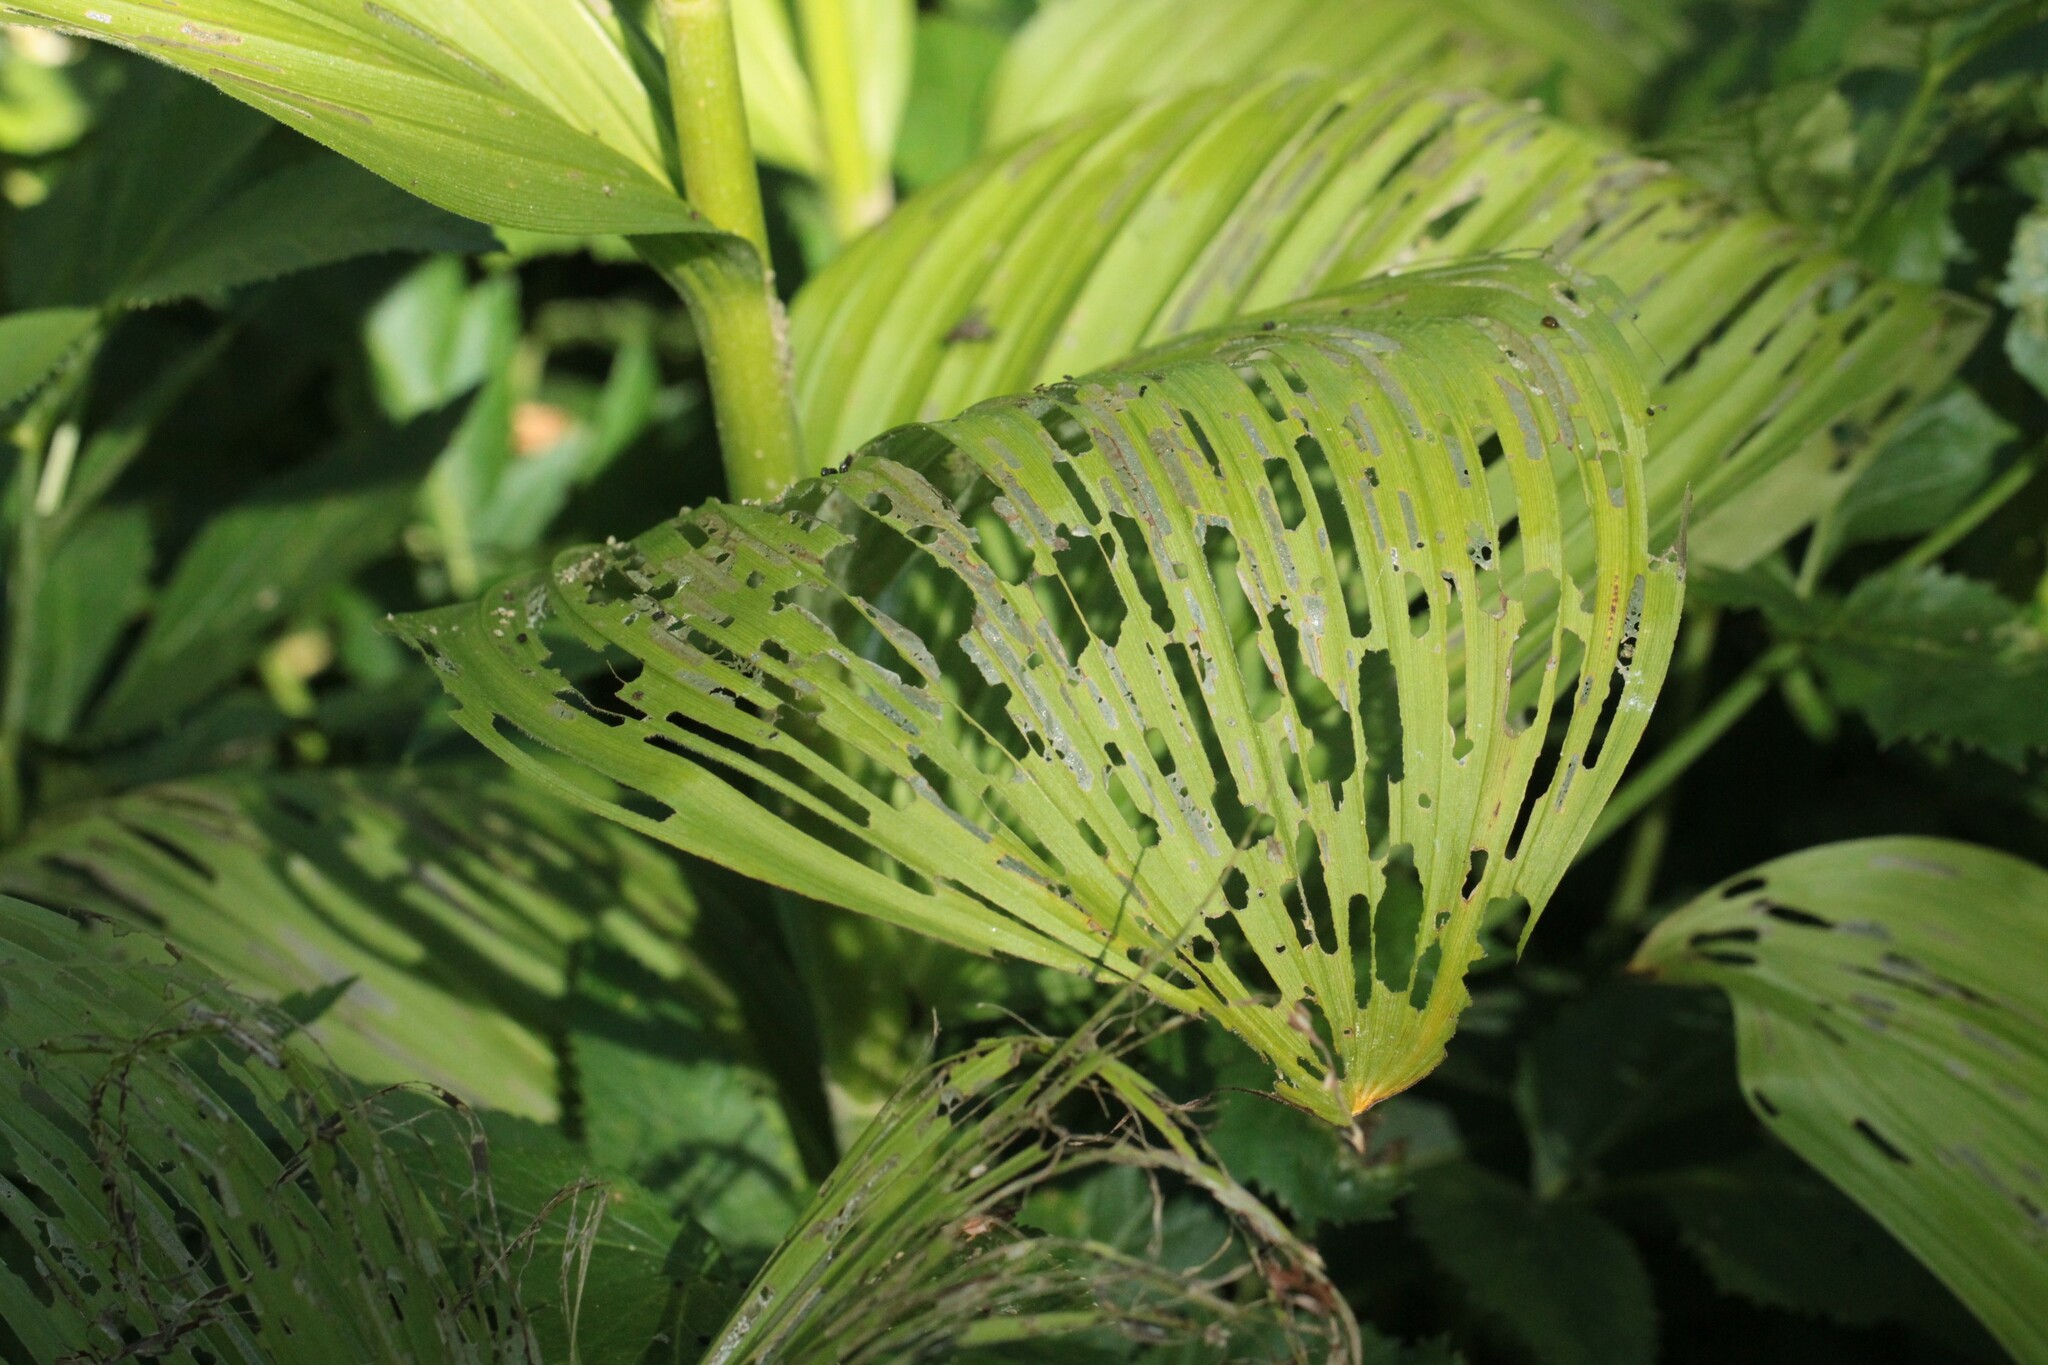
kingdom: Plantae
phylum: Tracheophyta
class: Liliopsida
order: Liliales
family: Melanthiaceae
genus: Veratrum
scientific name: Veratrum viride
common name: American false hellebore
